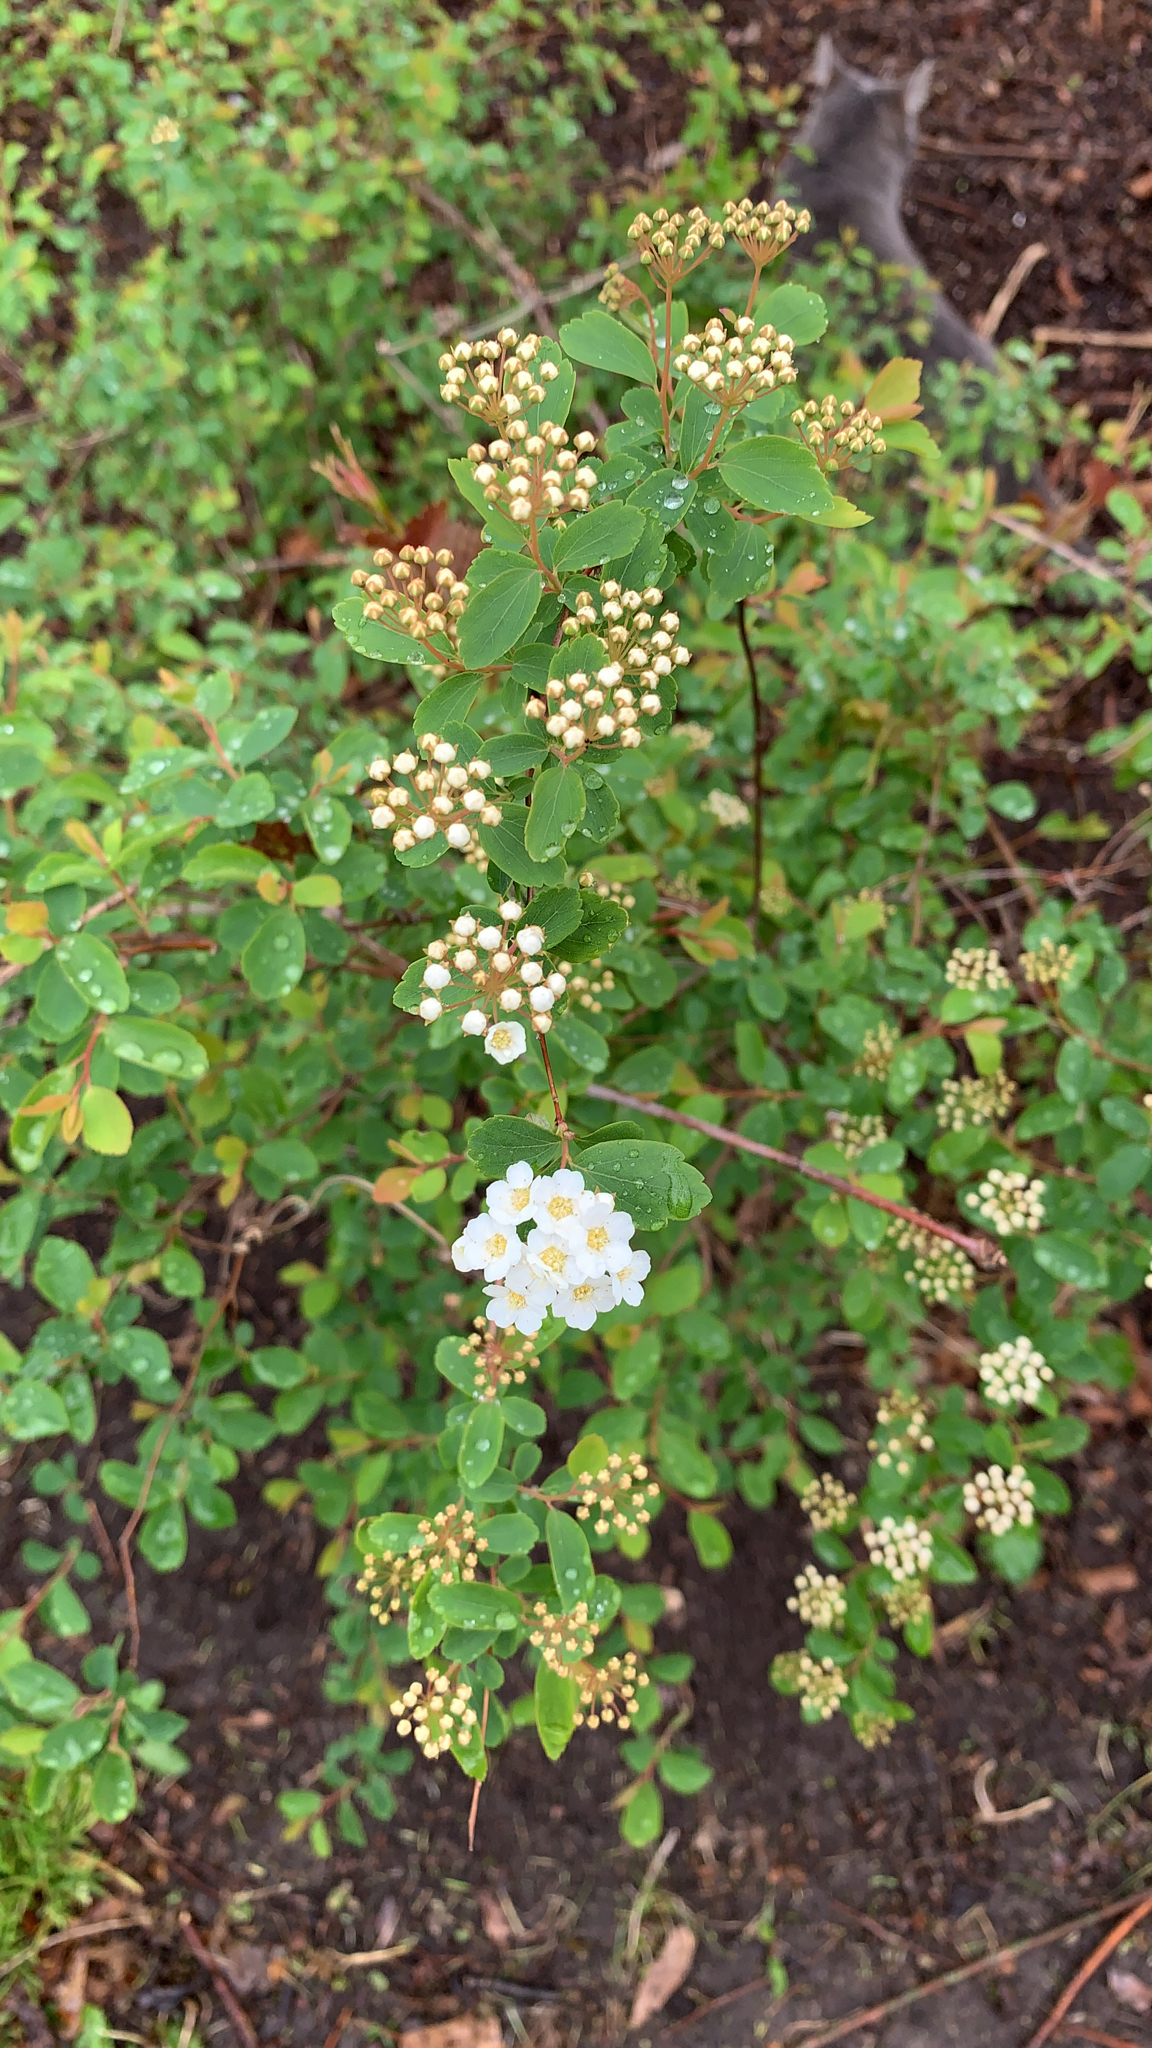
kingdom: Plantae
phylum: Tracheophyta
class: Magnoliopsida
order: Rosales
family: Rosaceae
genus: Spiraea
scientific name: Spiraea
